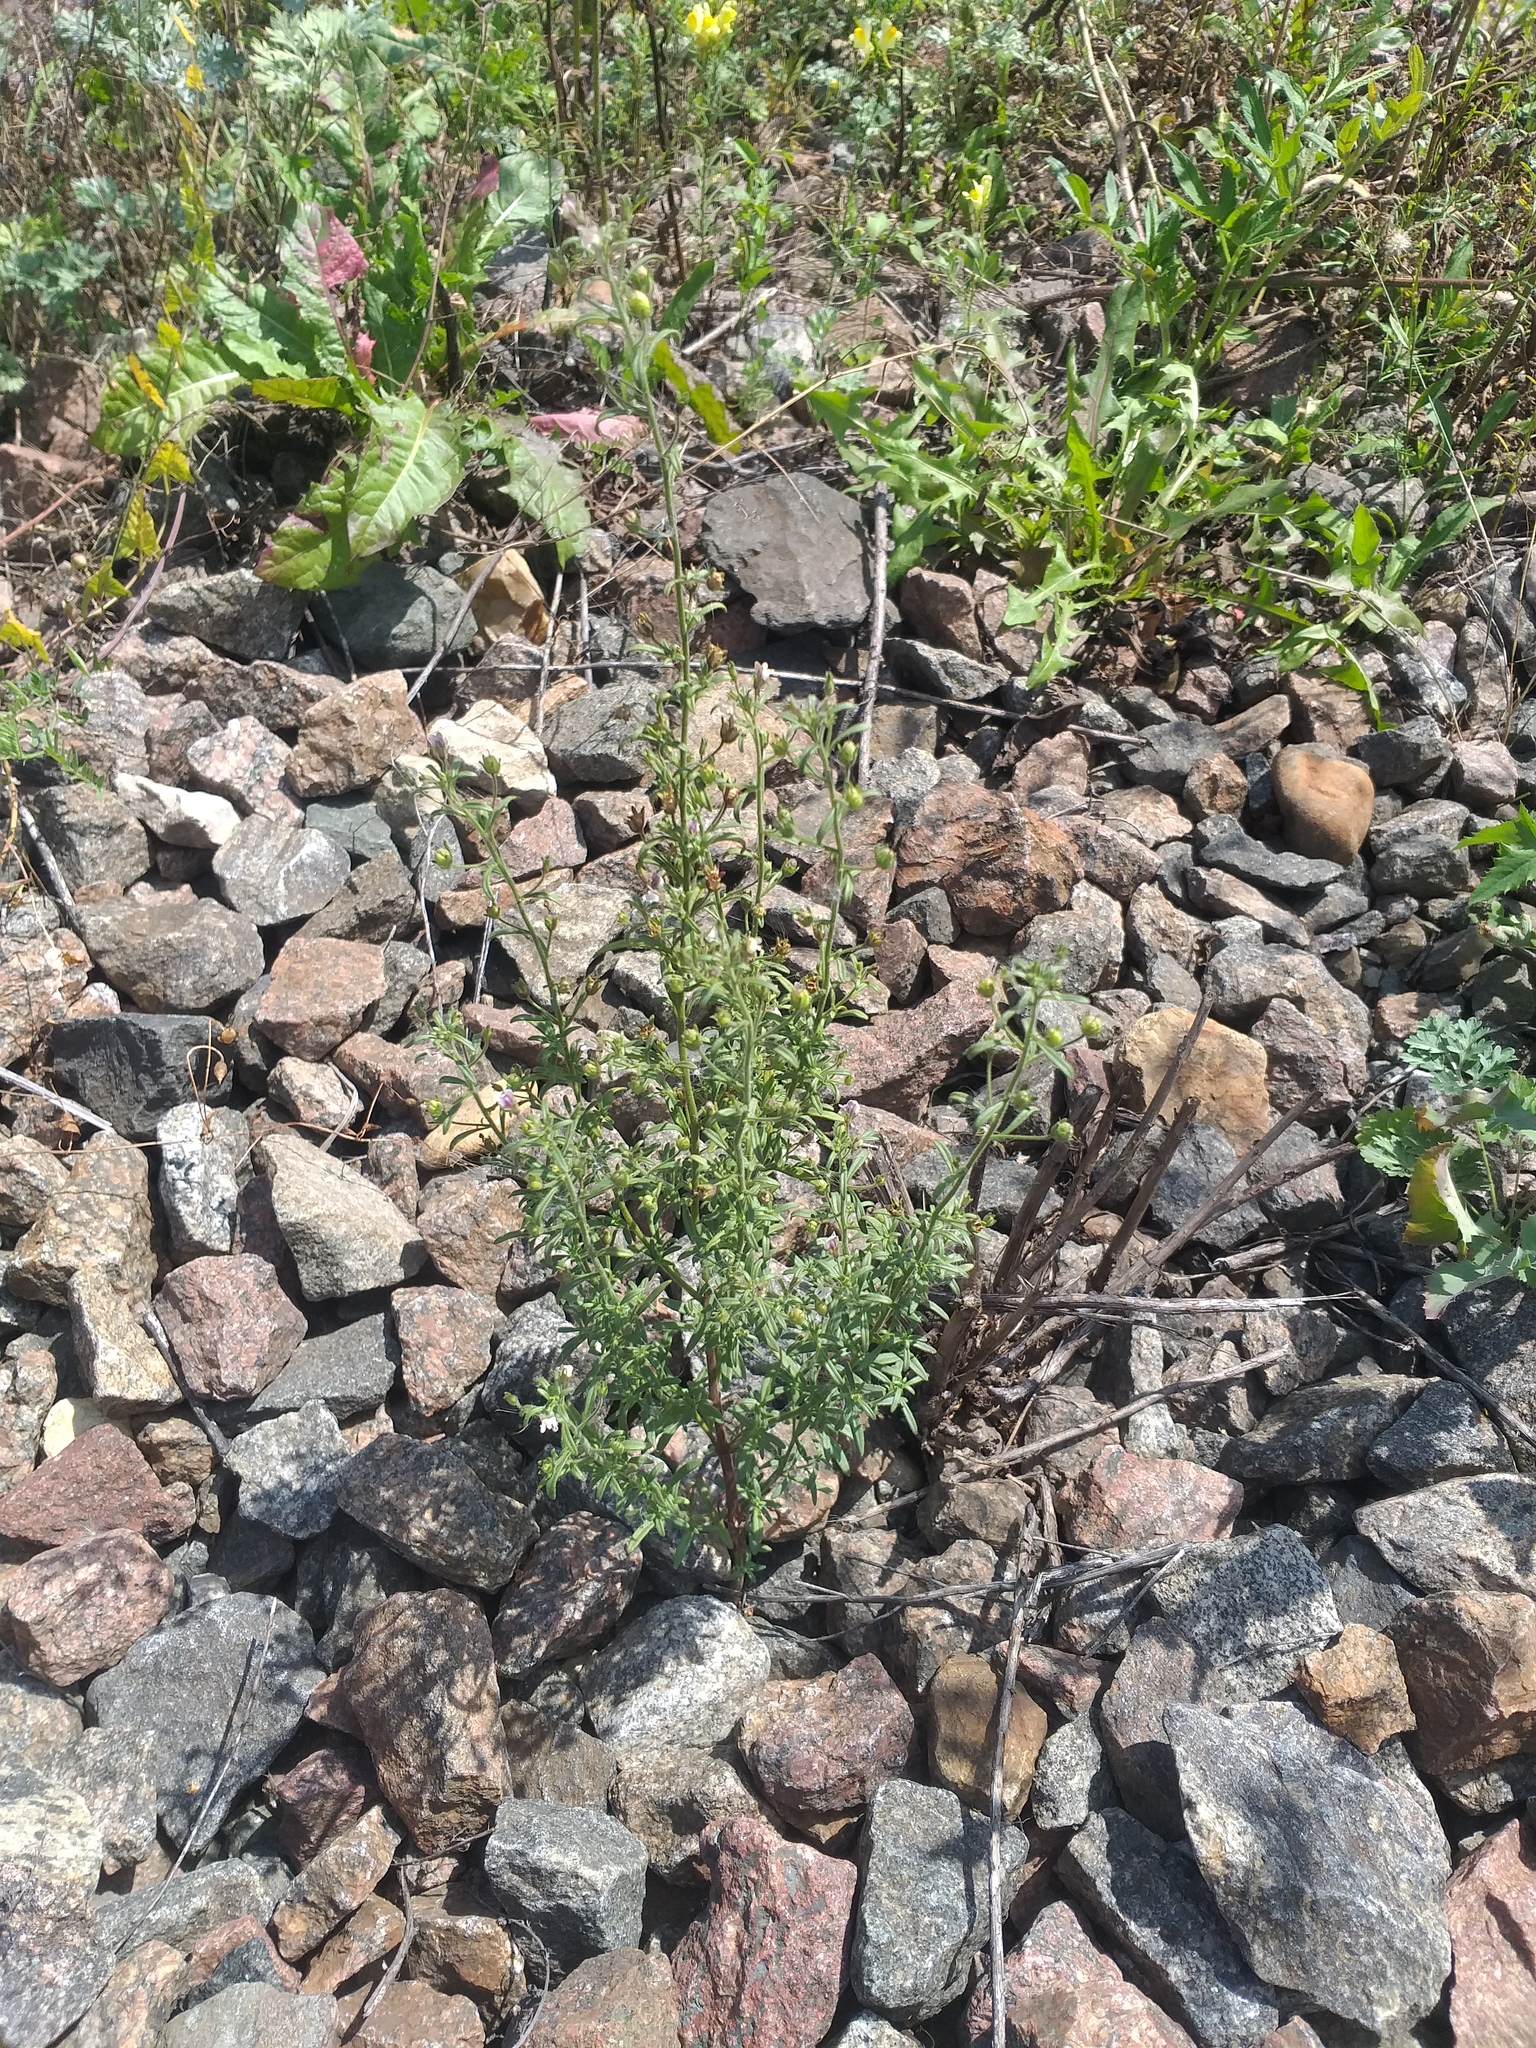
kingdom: Plantae
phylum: Tracheophyta
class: Magnoliopsida
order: Lamiales
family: Plantaginaceae
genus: Chaenorhinum
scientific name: Chaenorhinum minus
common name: Dwarf snapdragon
